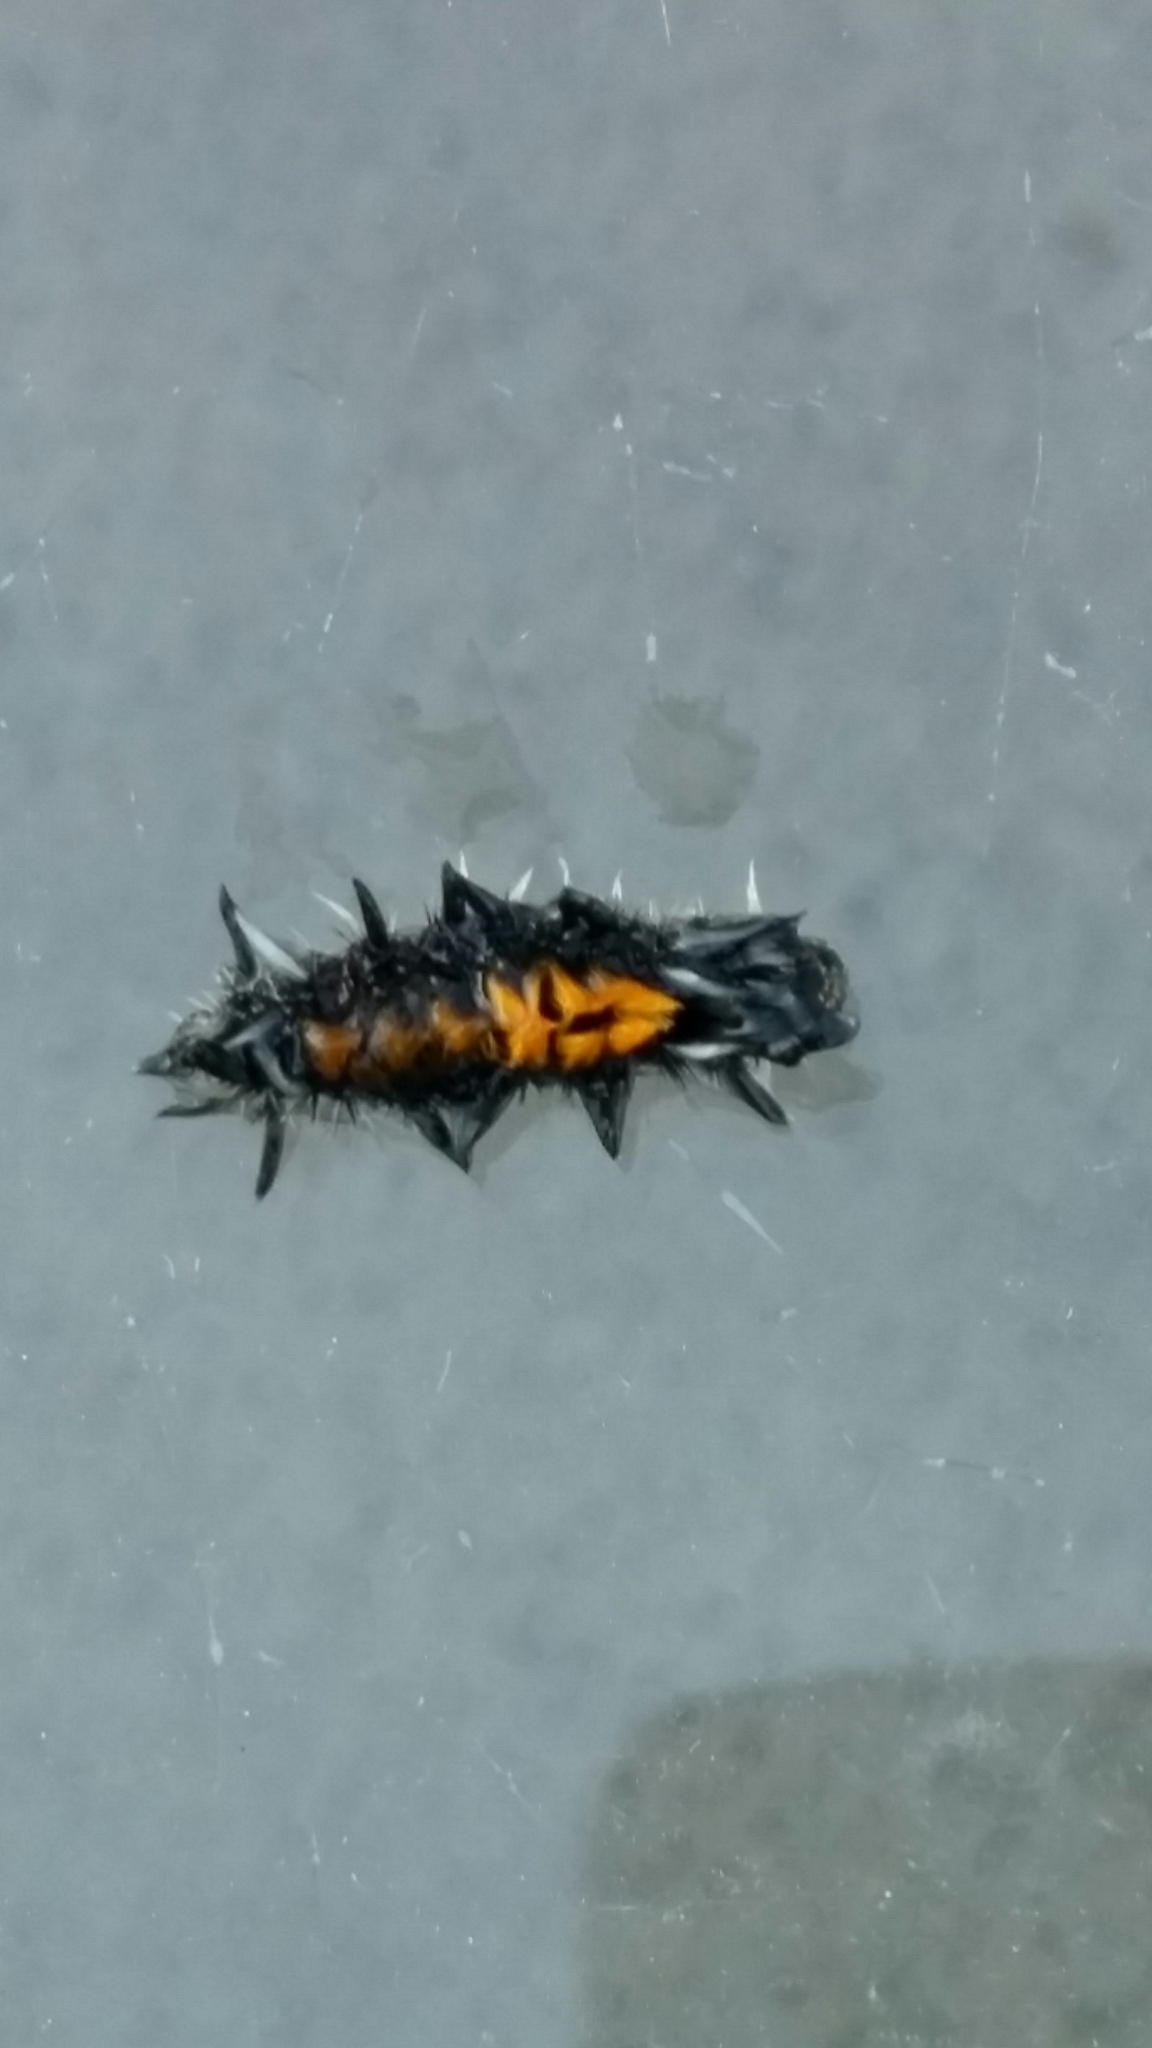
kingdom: Animalia
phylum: Arthropoda
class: Insecta
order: Lepidoptera
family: Erebidae
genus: Euchaetes
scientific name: Euchaetes egle
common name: Milkweed tussock moth
